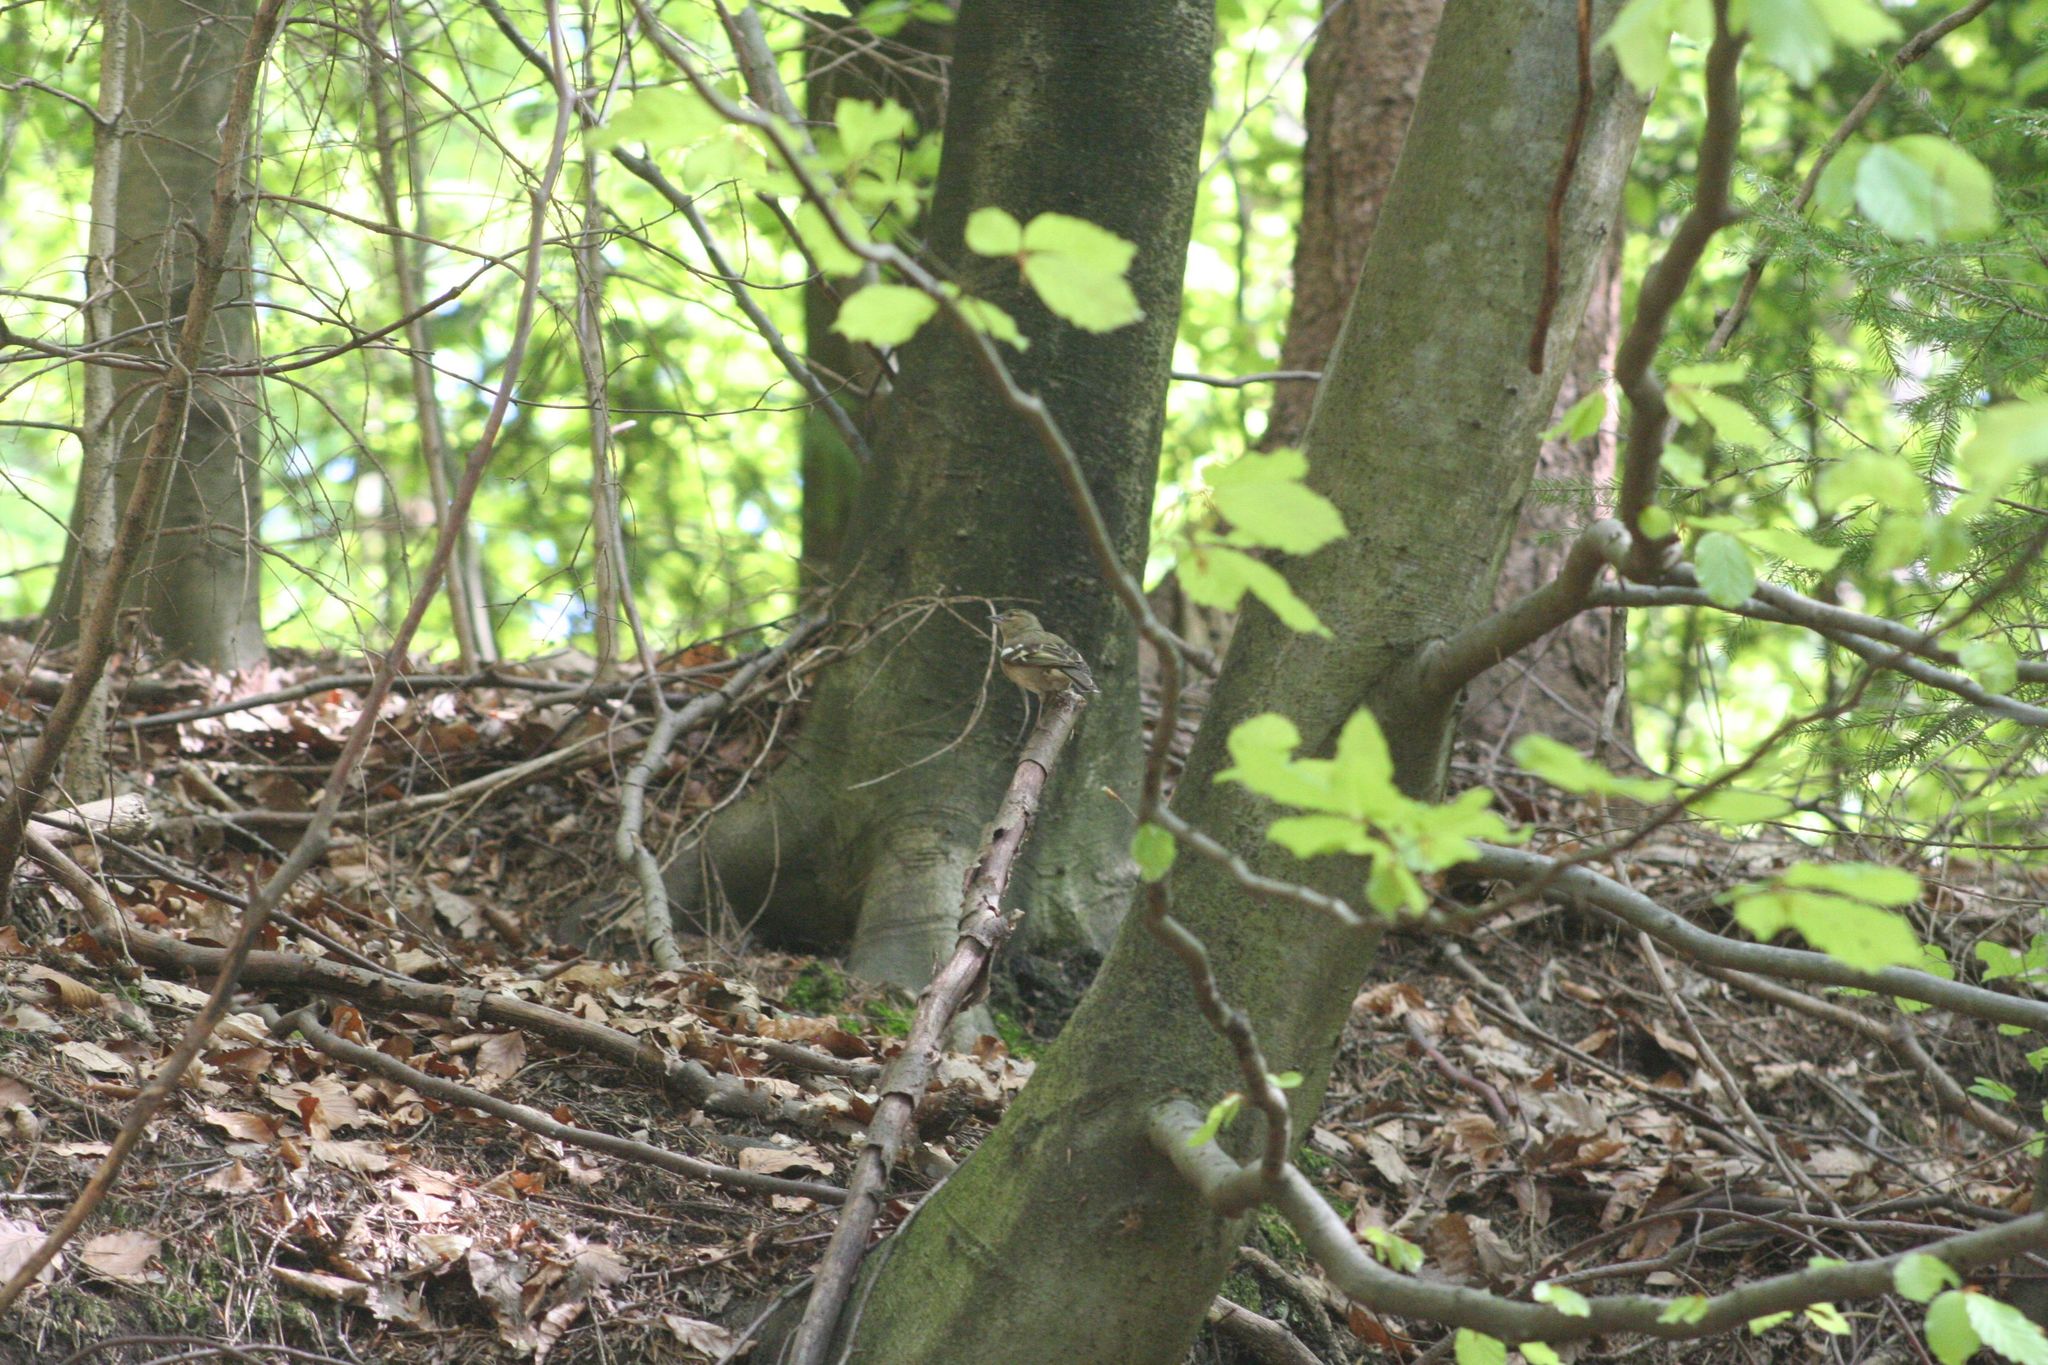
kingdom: Animalia
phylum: Chordata
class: Aves
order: Passeriformes
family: Fringillidae
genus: Fringilla
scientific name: Fringilla coelebs
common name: Common chaffinch
